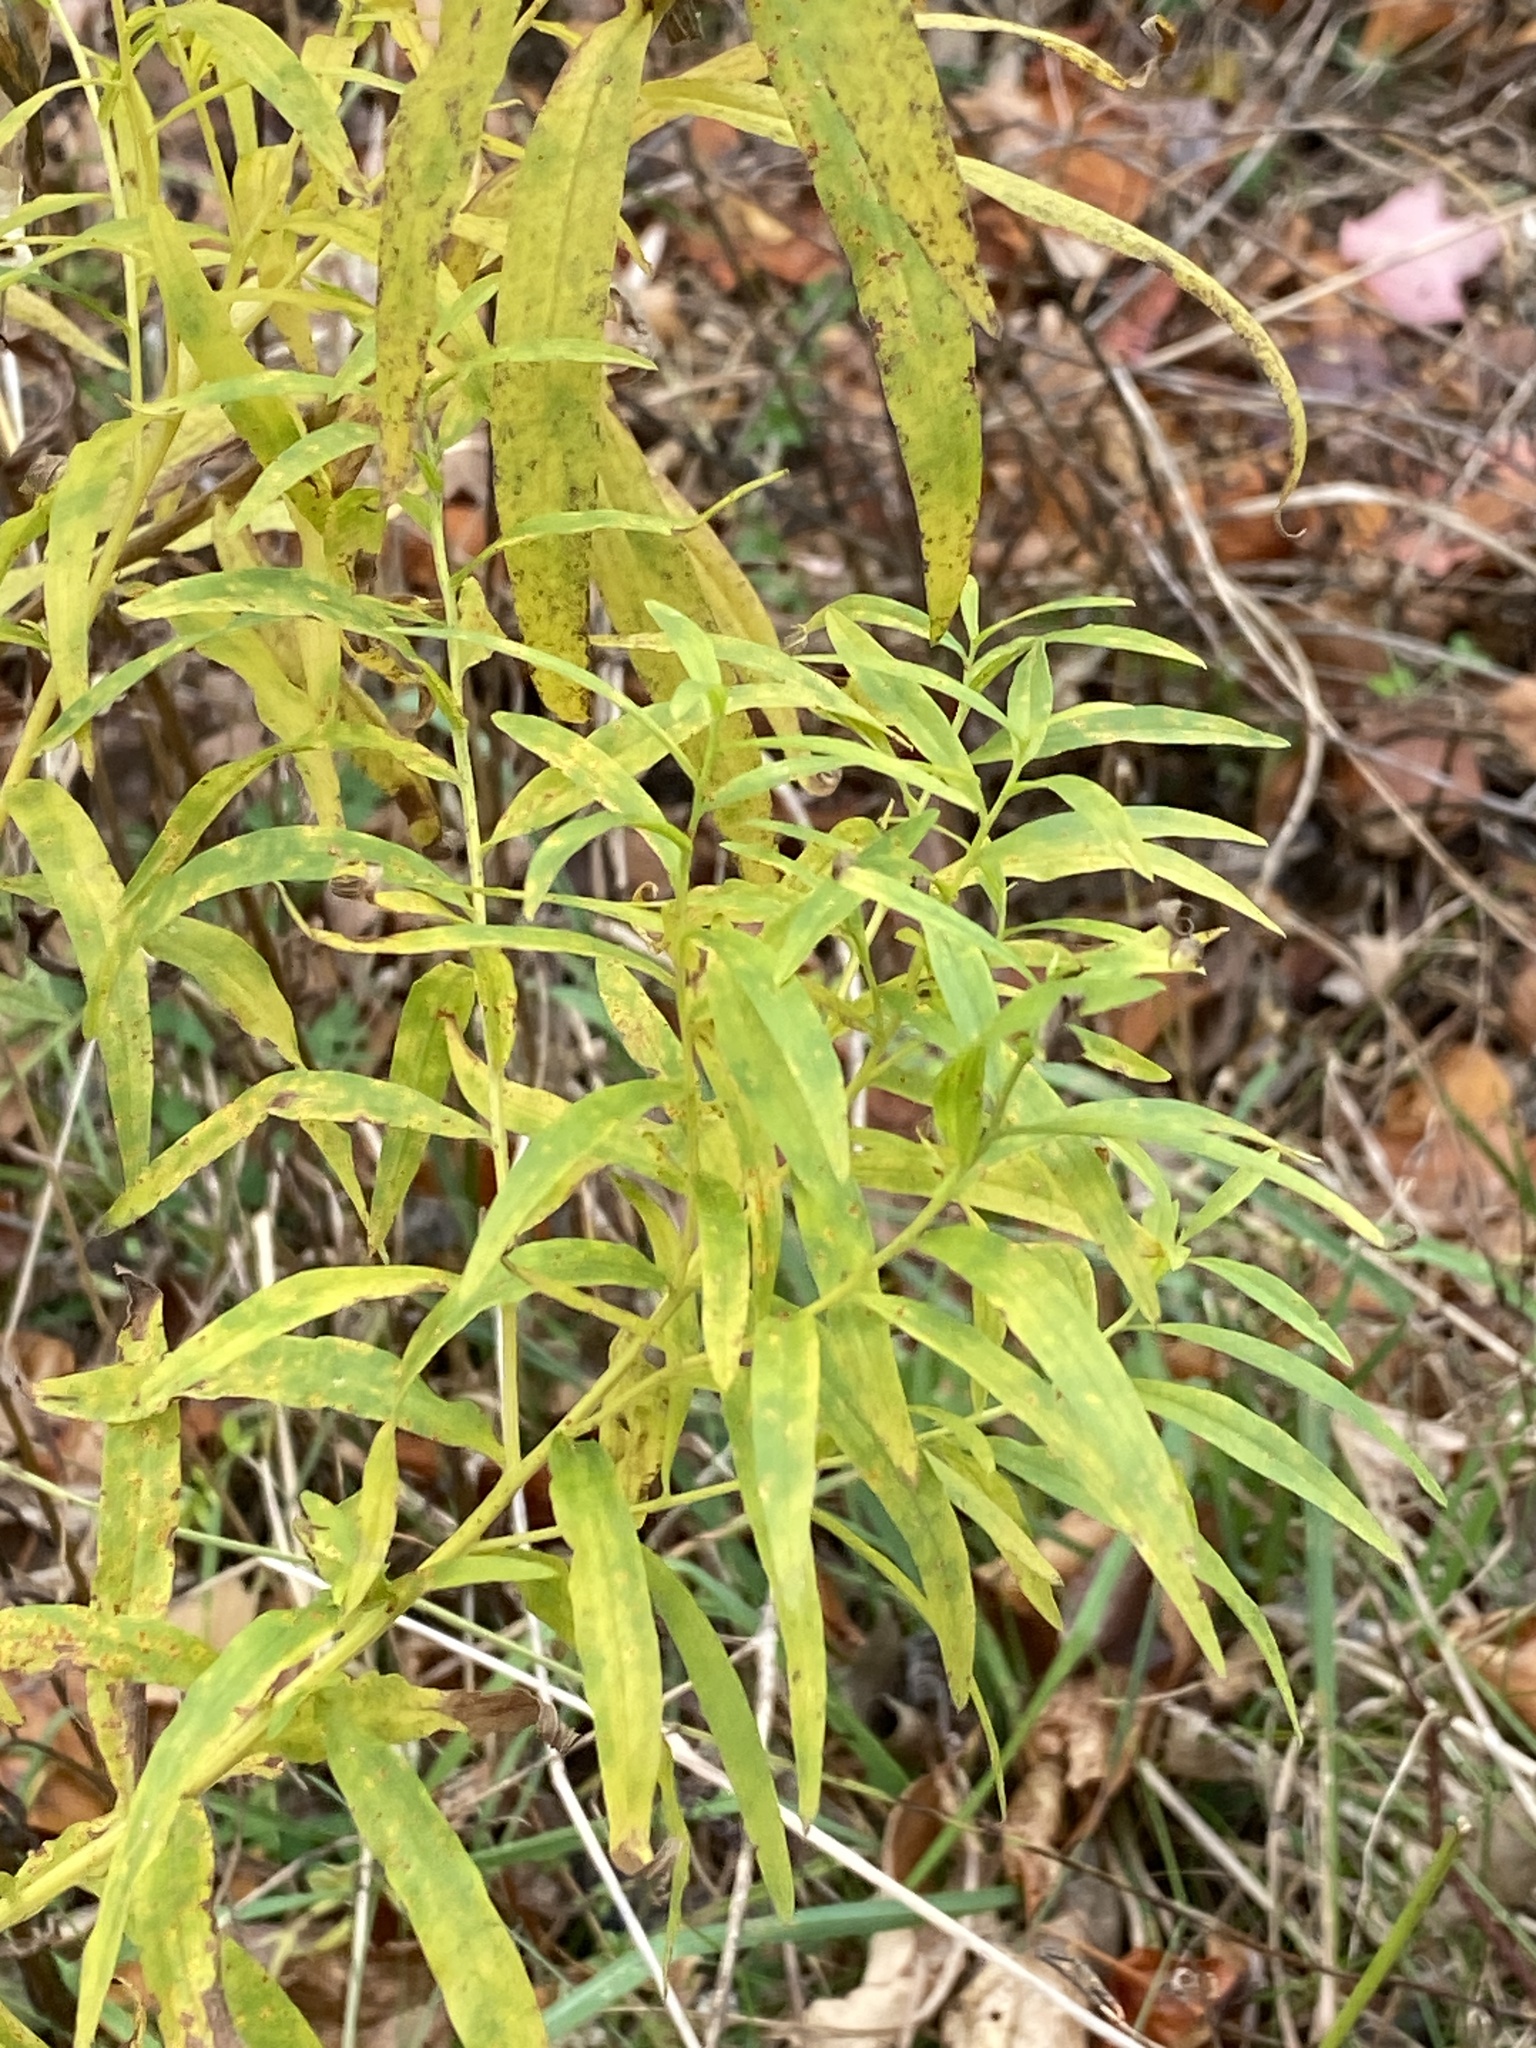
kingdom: Plantae
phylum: Tracheophyta
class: Magnoliopsida
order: Asterales
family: Asteraceae
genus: Euthamia
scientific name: Euthamia graminifolia
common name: Common goldentop
